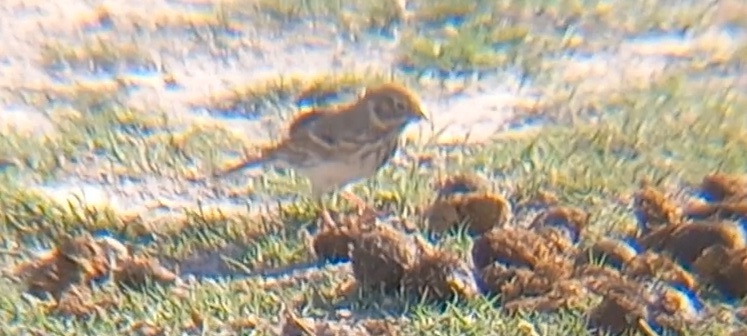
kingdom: Animalia
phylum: Chordata
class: Aves
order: Passeriformes
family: Passerellidae
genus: Pooecetes
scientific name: Pooecetes gramineus
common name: Vesper sparrow
